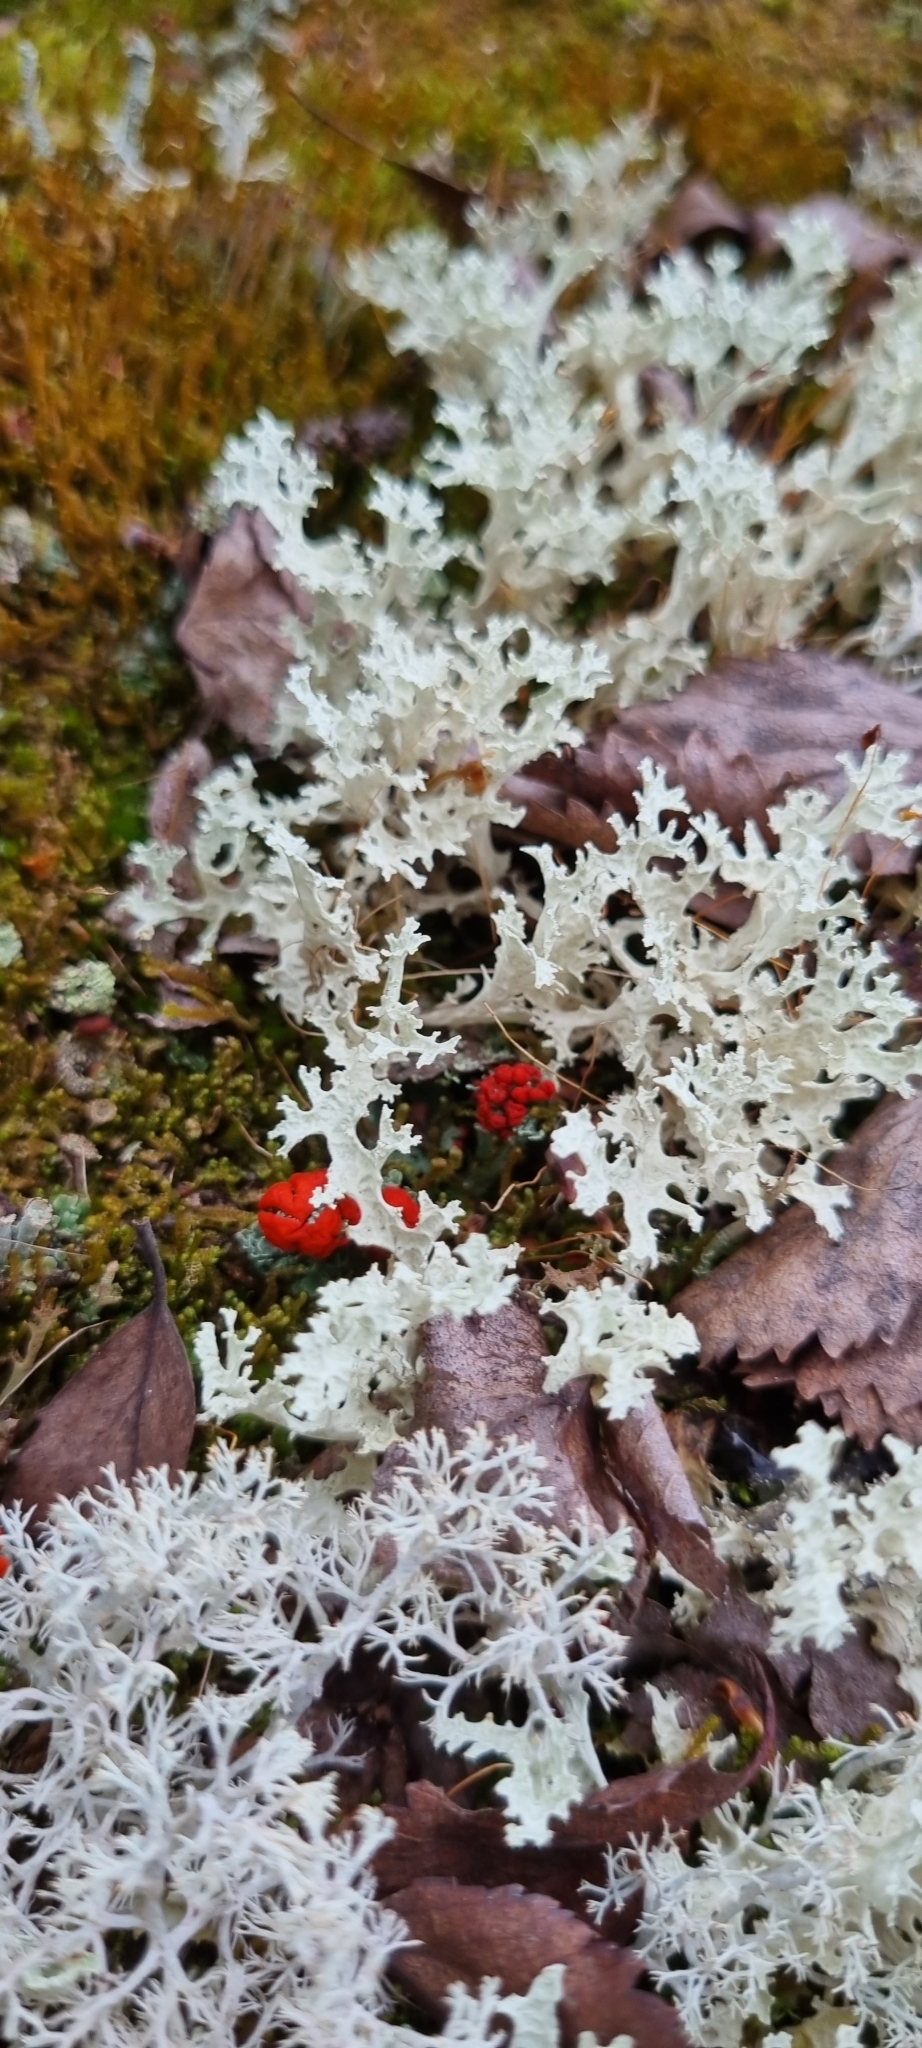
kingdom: Fungi
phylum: Ascomycota
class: Lecanoromycetes
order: Lecanorales
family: Parmeliaceae
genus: Nephromopsis
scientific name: Nephromopsis nivalis
